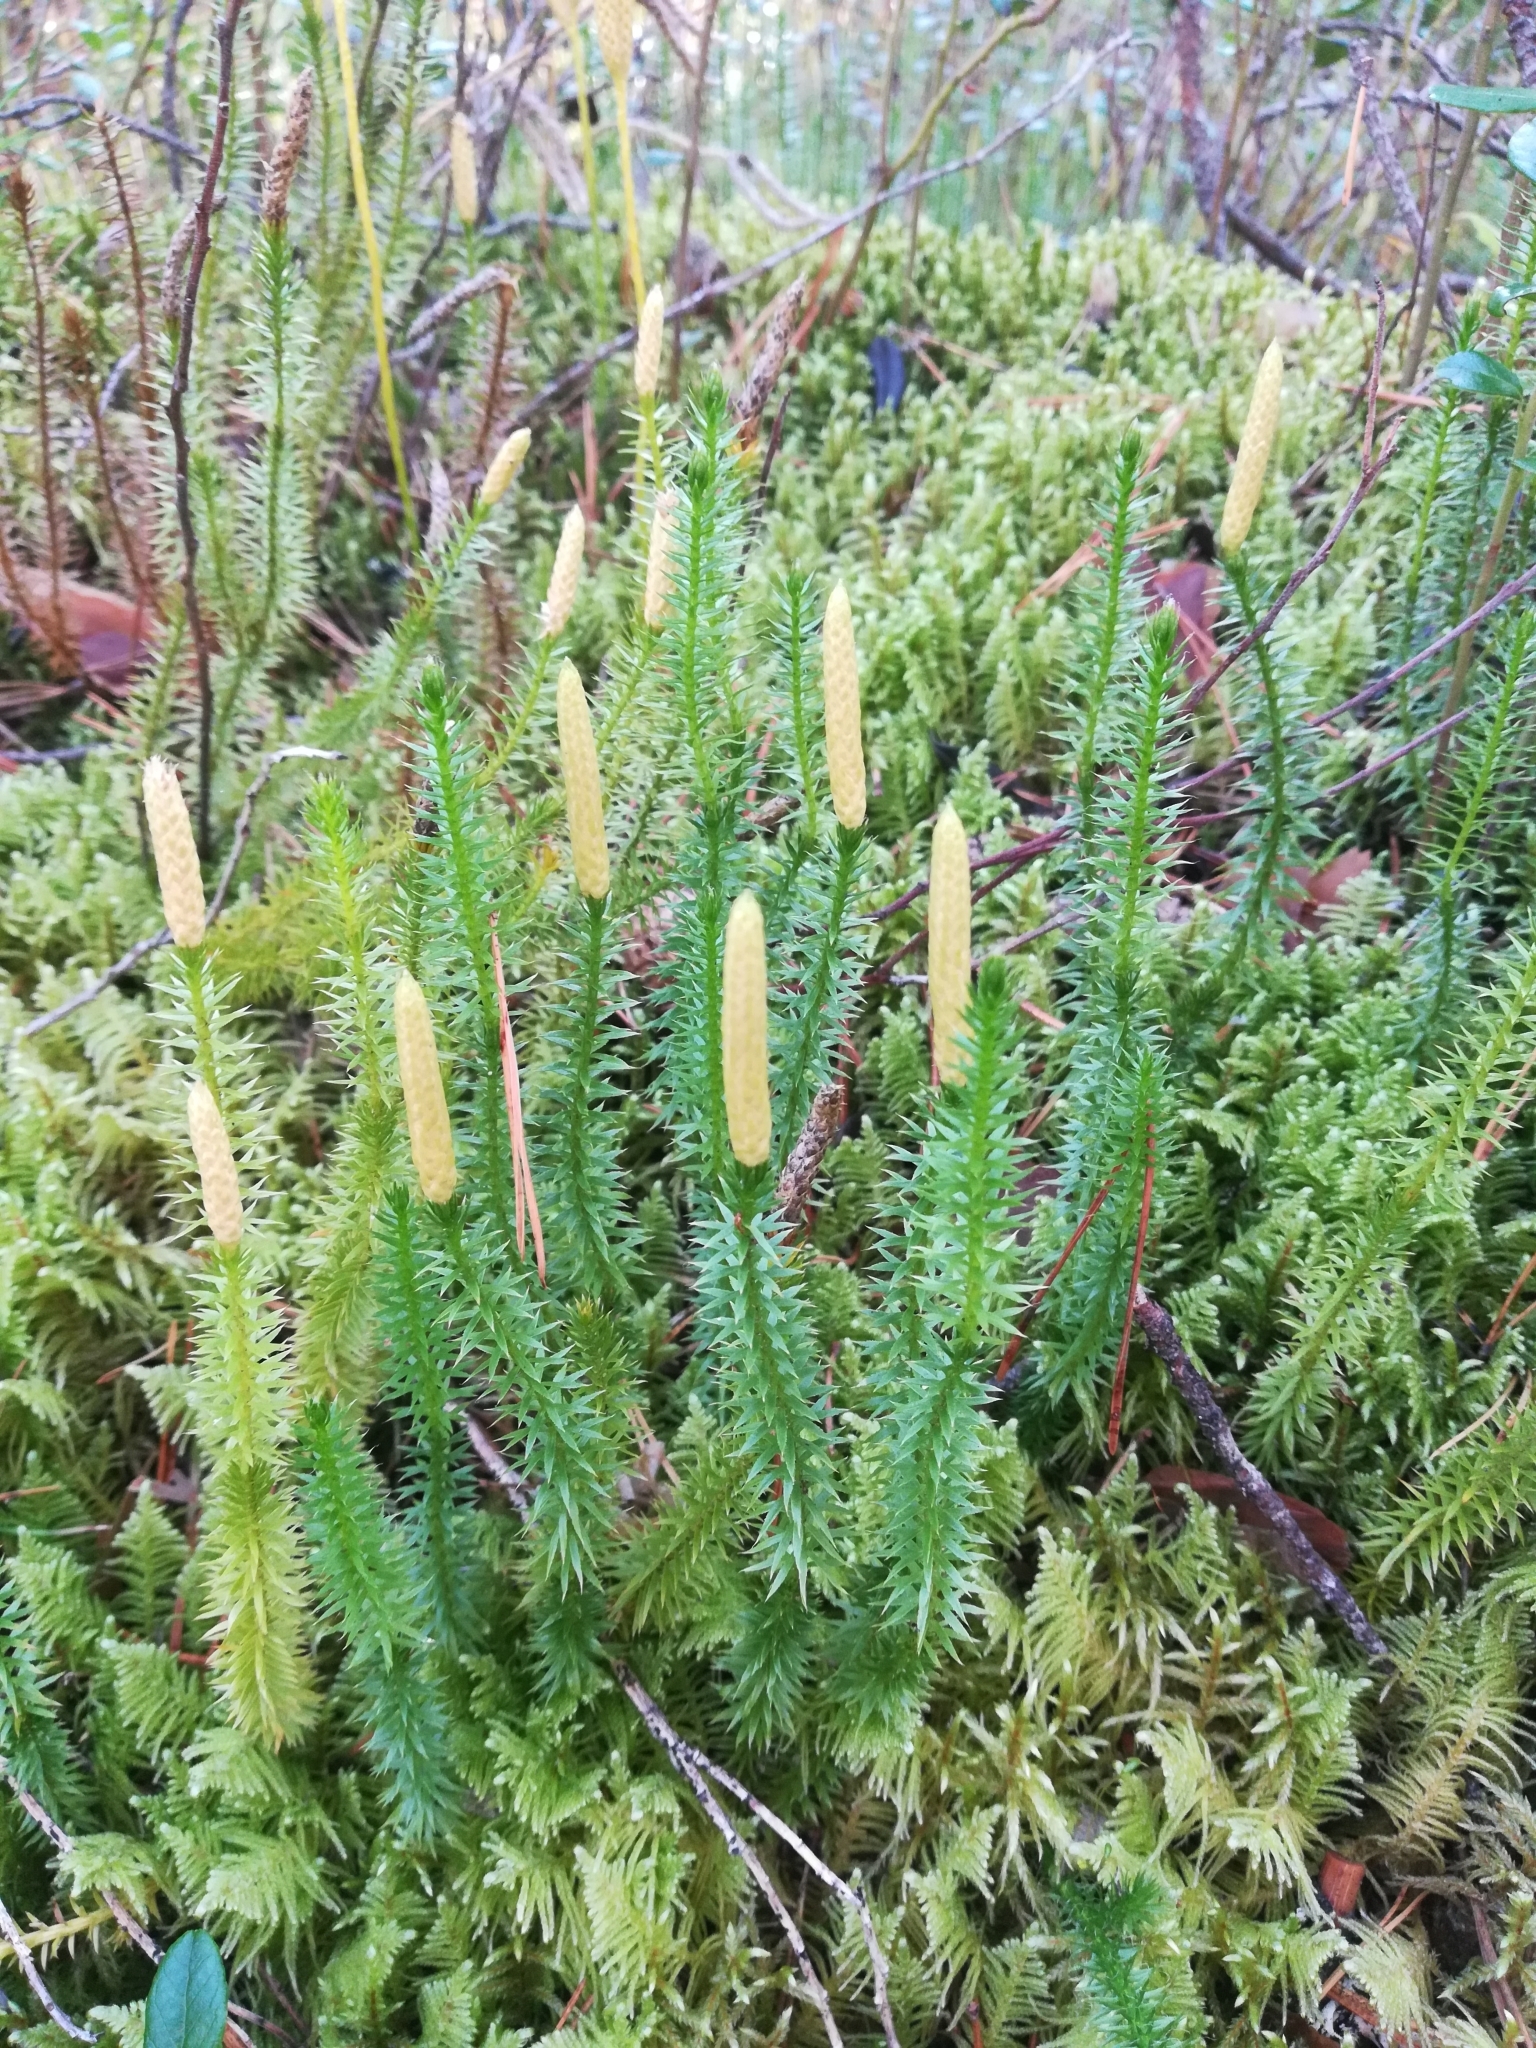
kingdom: Plantae
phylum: Tracheophyta
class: Lycopodiopsida
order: Lycopodiales
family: Lycopodiaceae
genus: Spinulum
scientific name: Spinulum annotinum
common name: Interrupted club-moss
